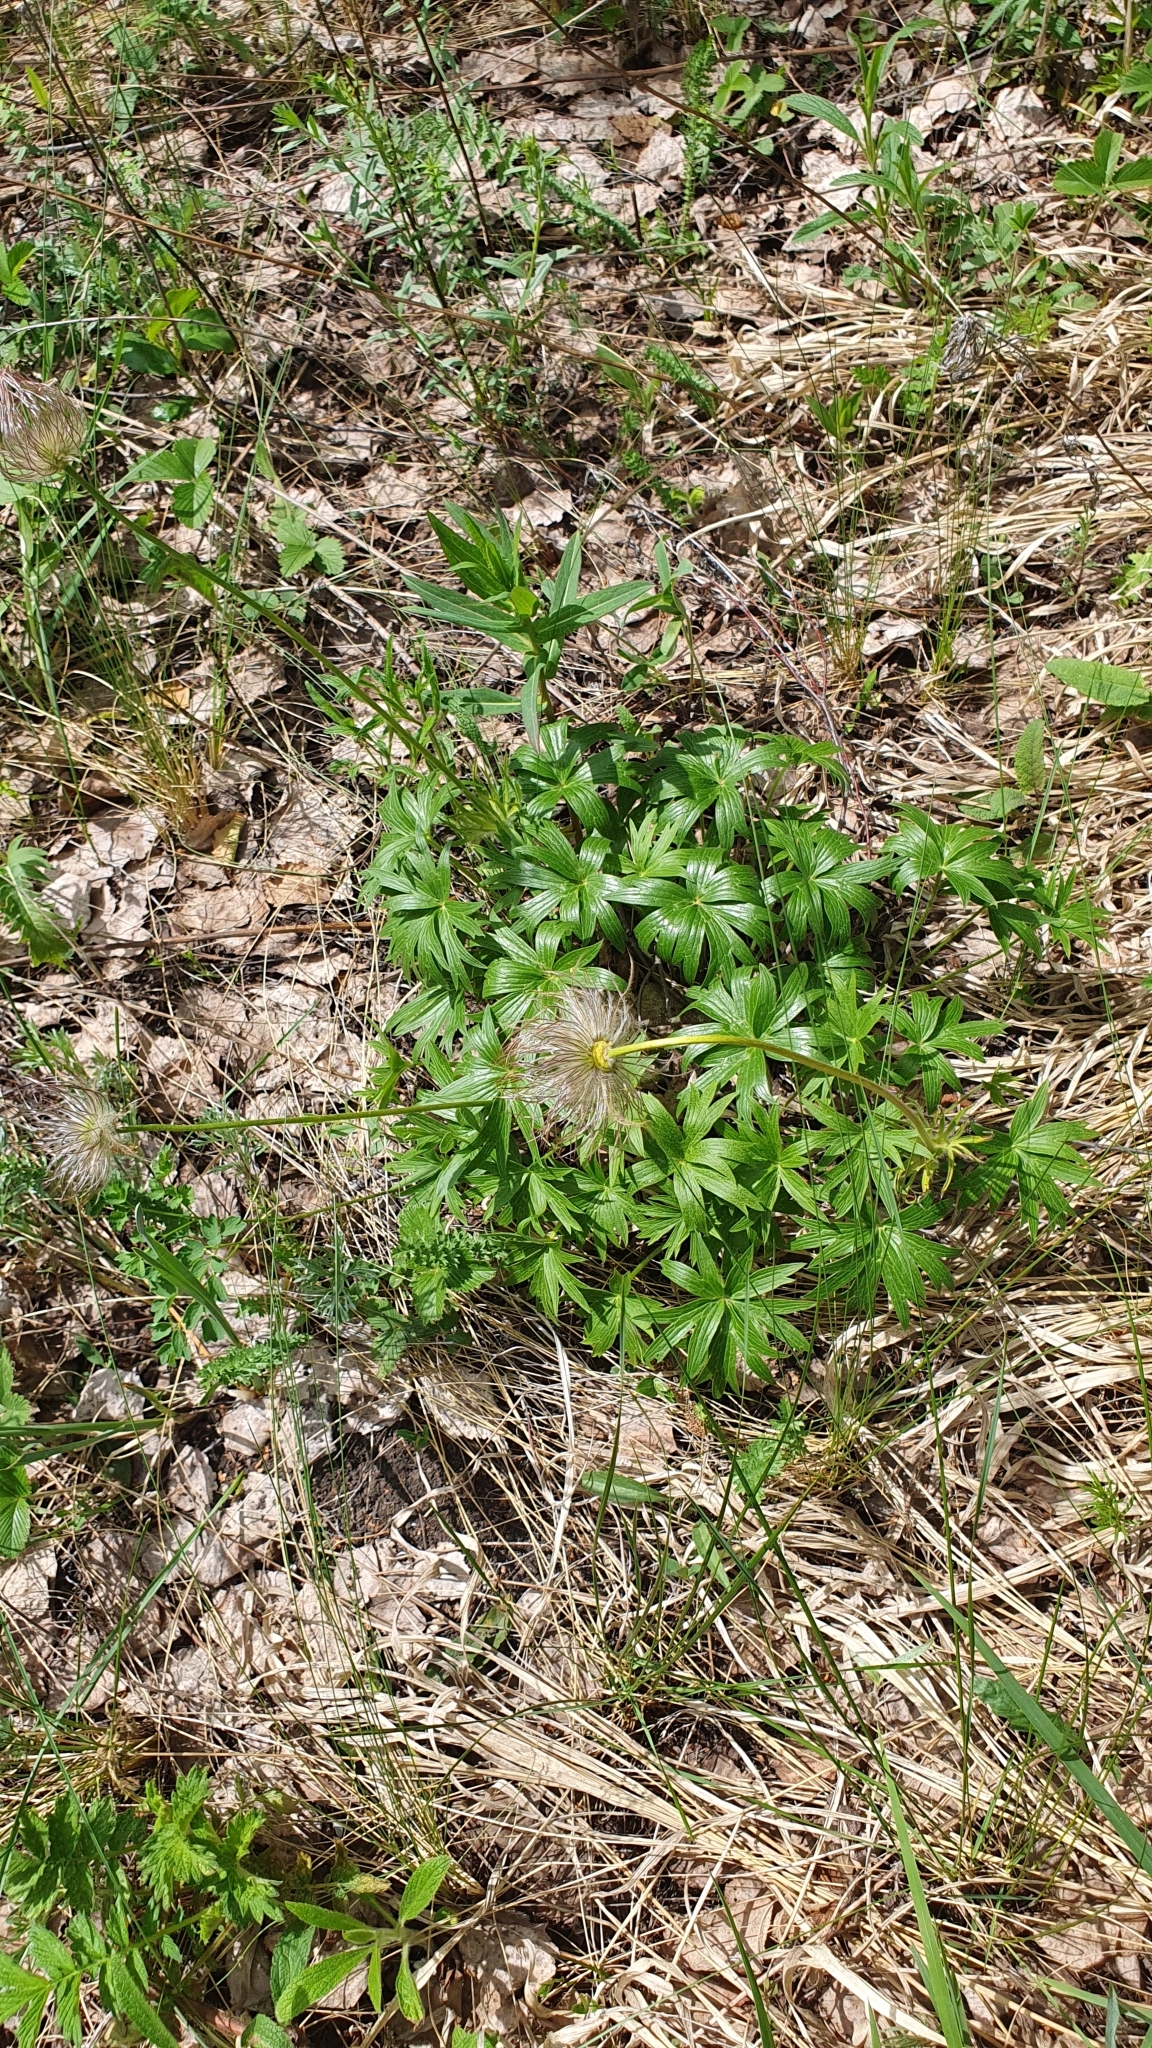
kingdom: Plantae
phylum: Tracheophyta
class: Magnoliopsida
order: Ranunculales
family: Ranunculaceae
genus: Pulsatilla
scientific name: Pulsatilla patens
